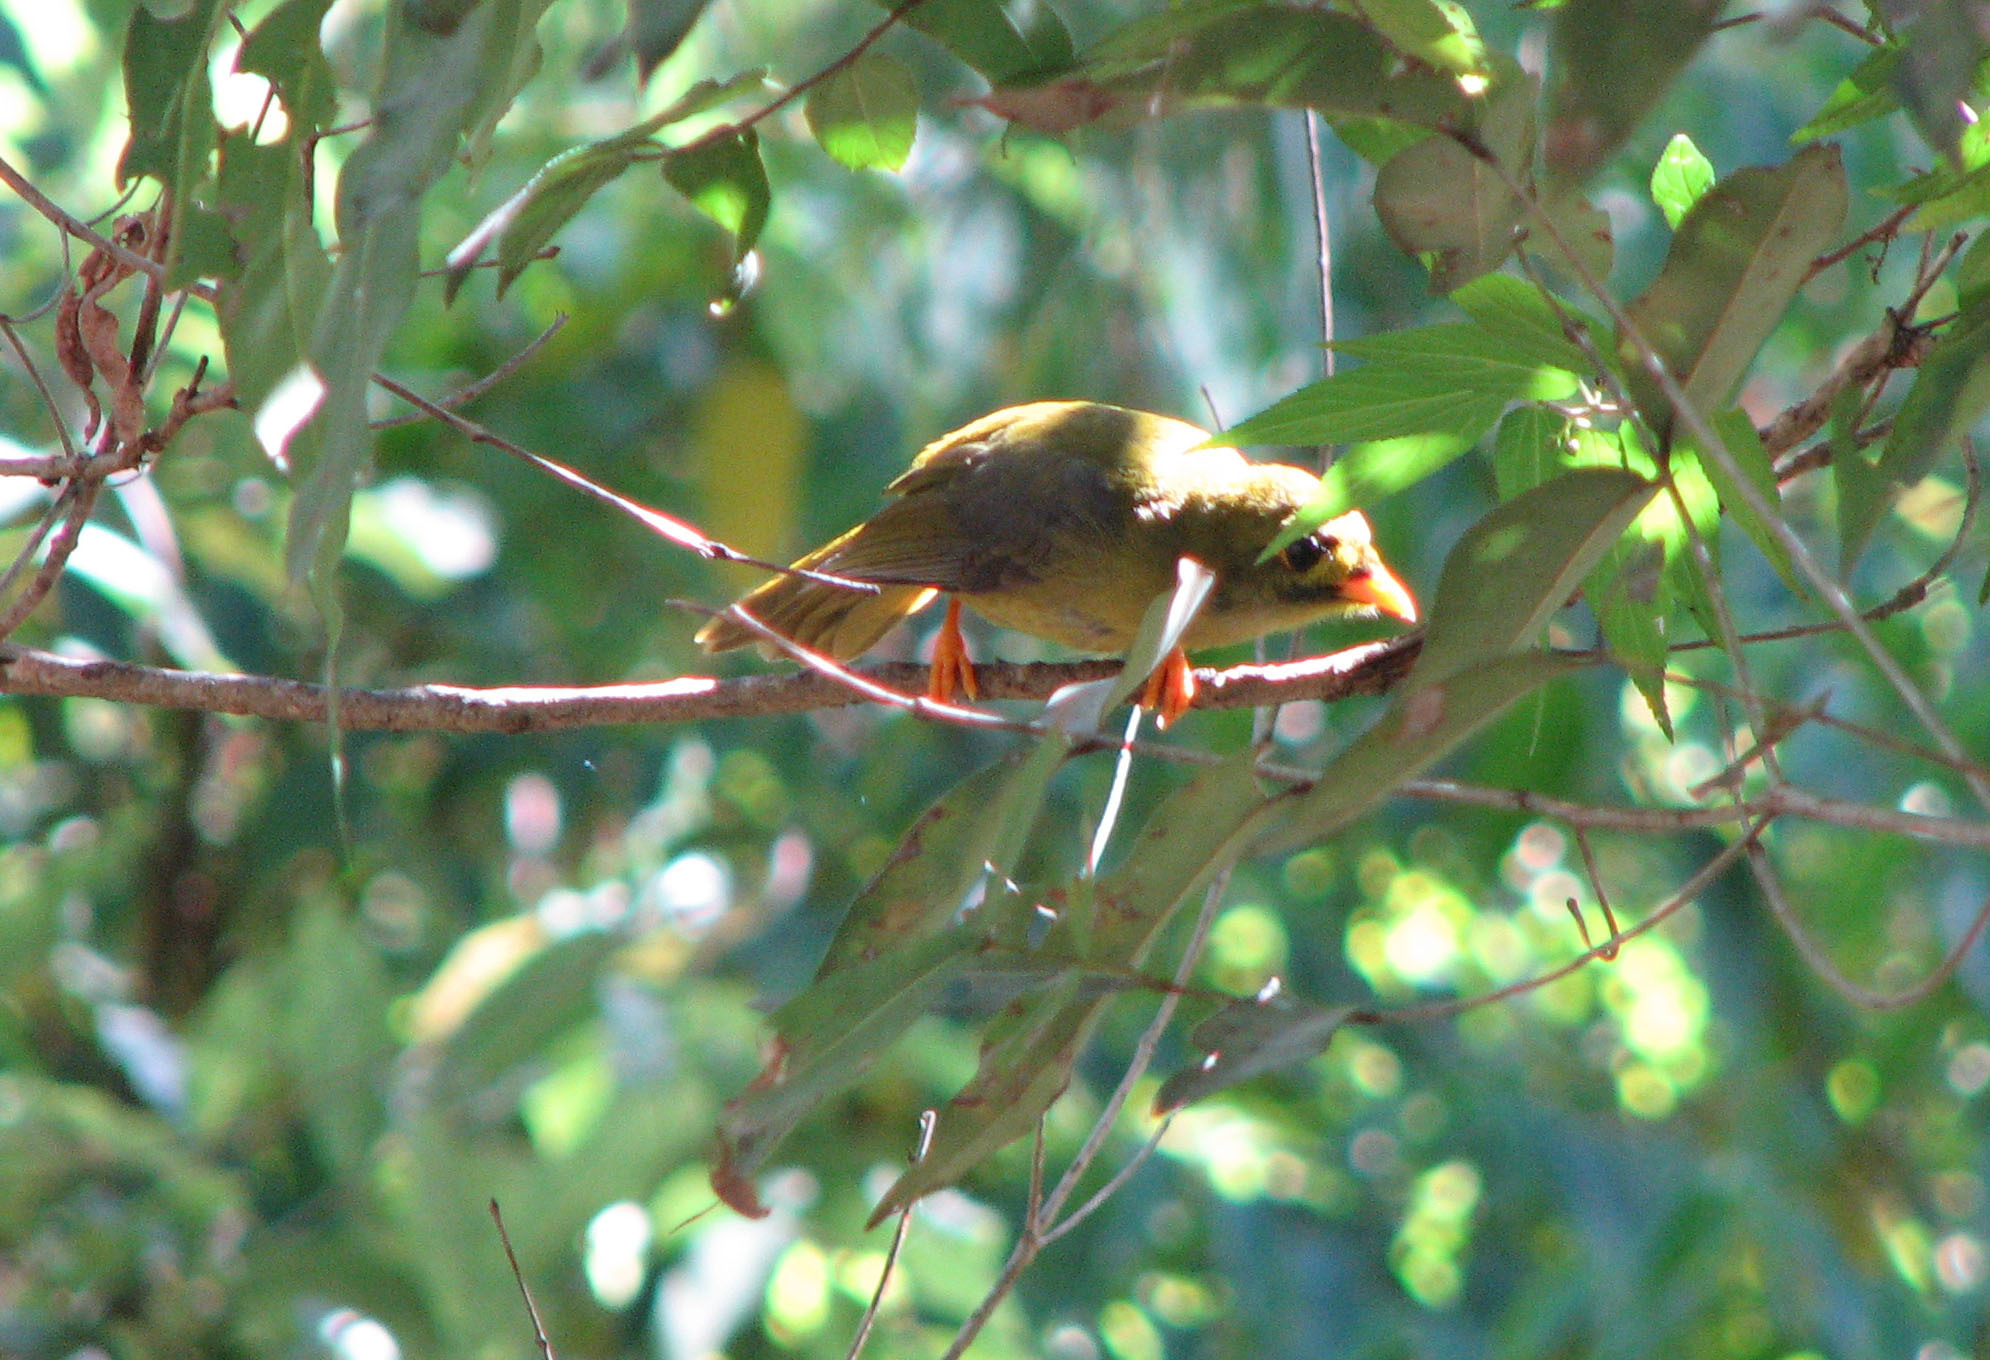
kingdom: Animalia
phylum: Chordata
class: Aves
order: Passeriformes
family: Meliphagidae
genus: Manorina
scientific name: Manorina melanophrys
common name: Bell miner
